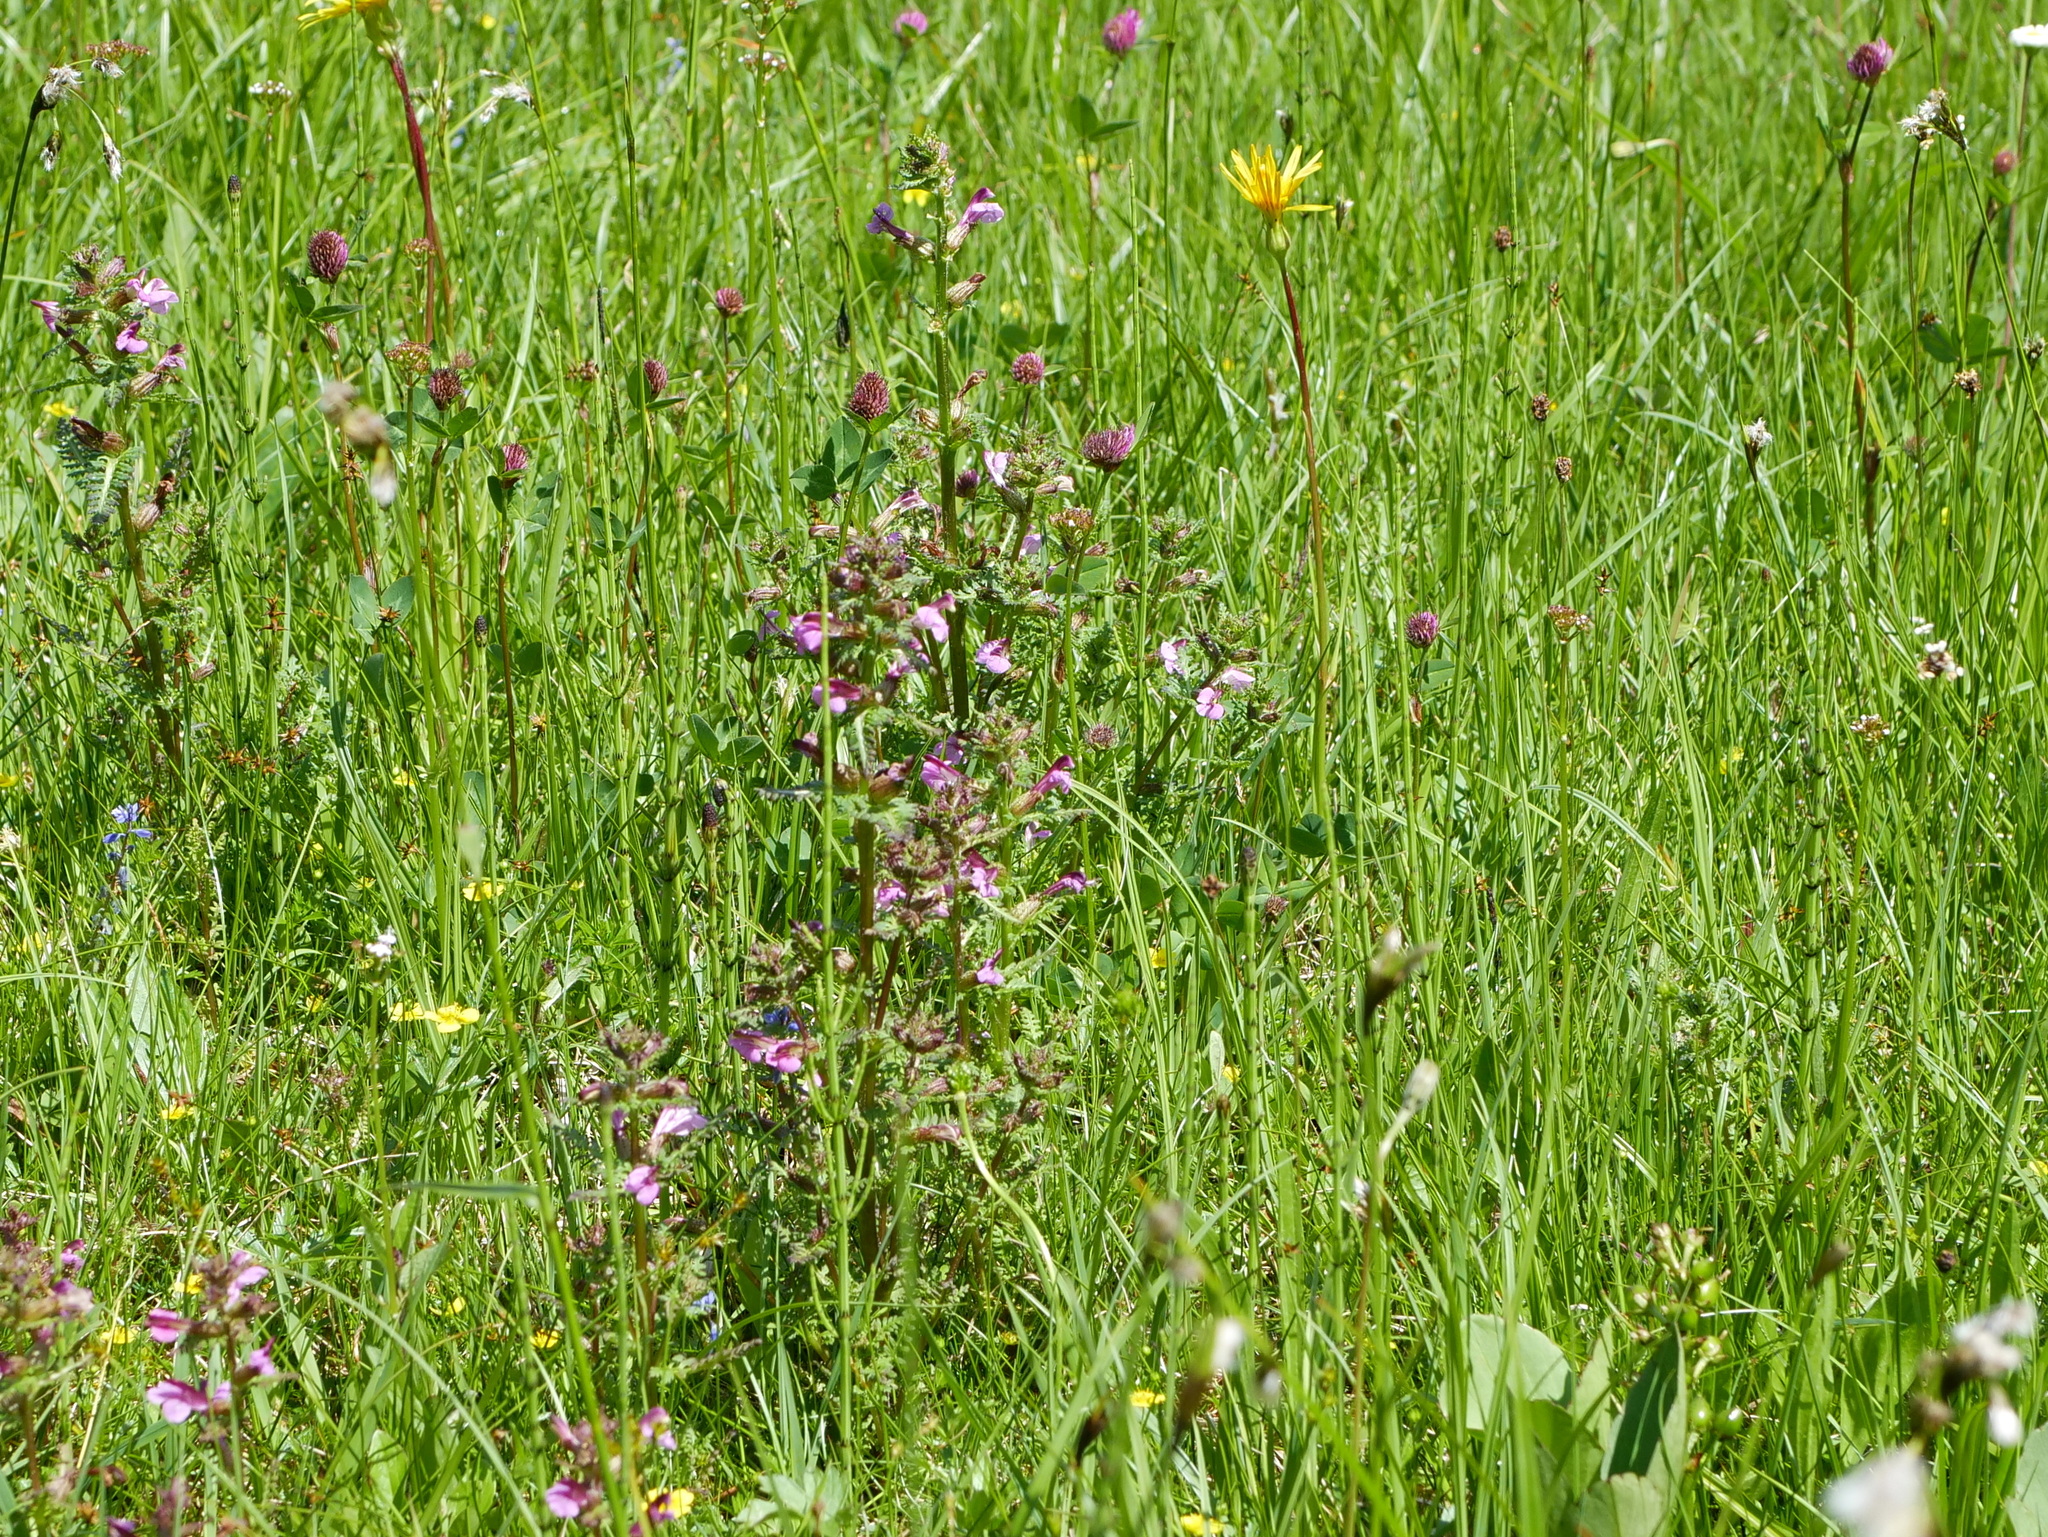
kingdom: Plantae
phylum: Tracheophyta
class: Magnoliopsida
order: Lamiales
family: Orobanchaceae
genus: Pedicularis
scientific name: Pedicularis palustris
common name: Marsh lousewort
